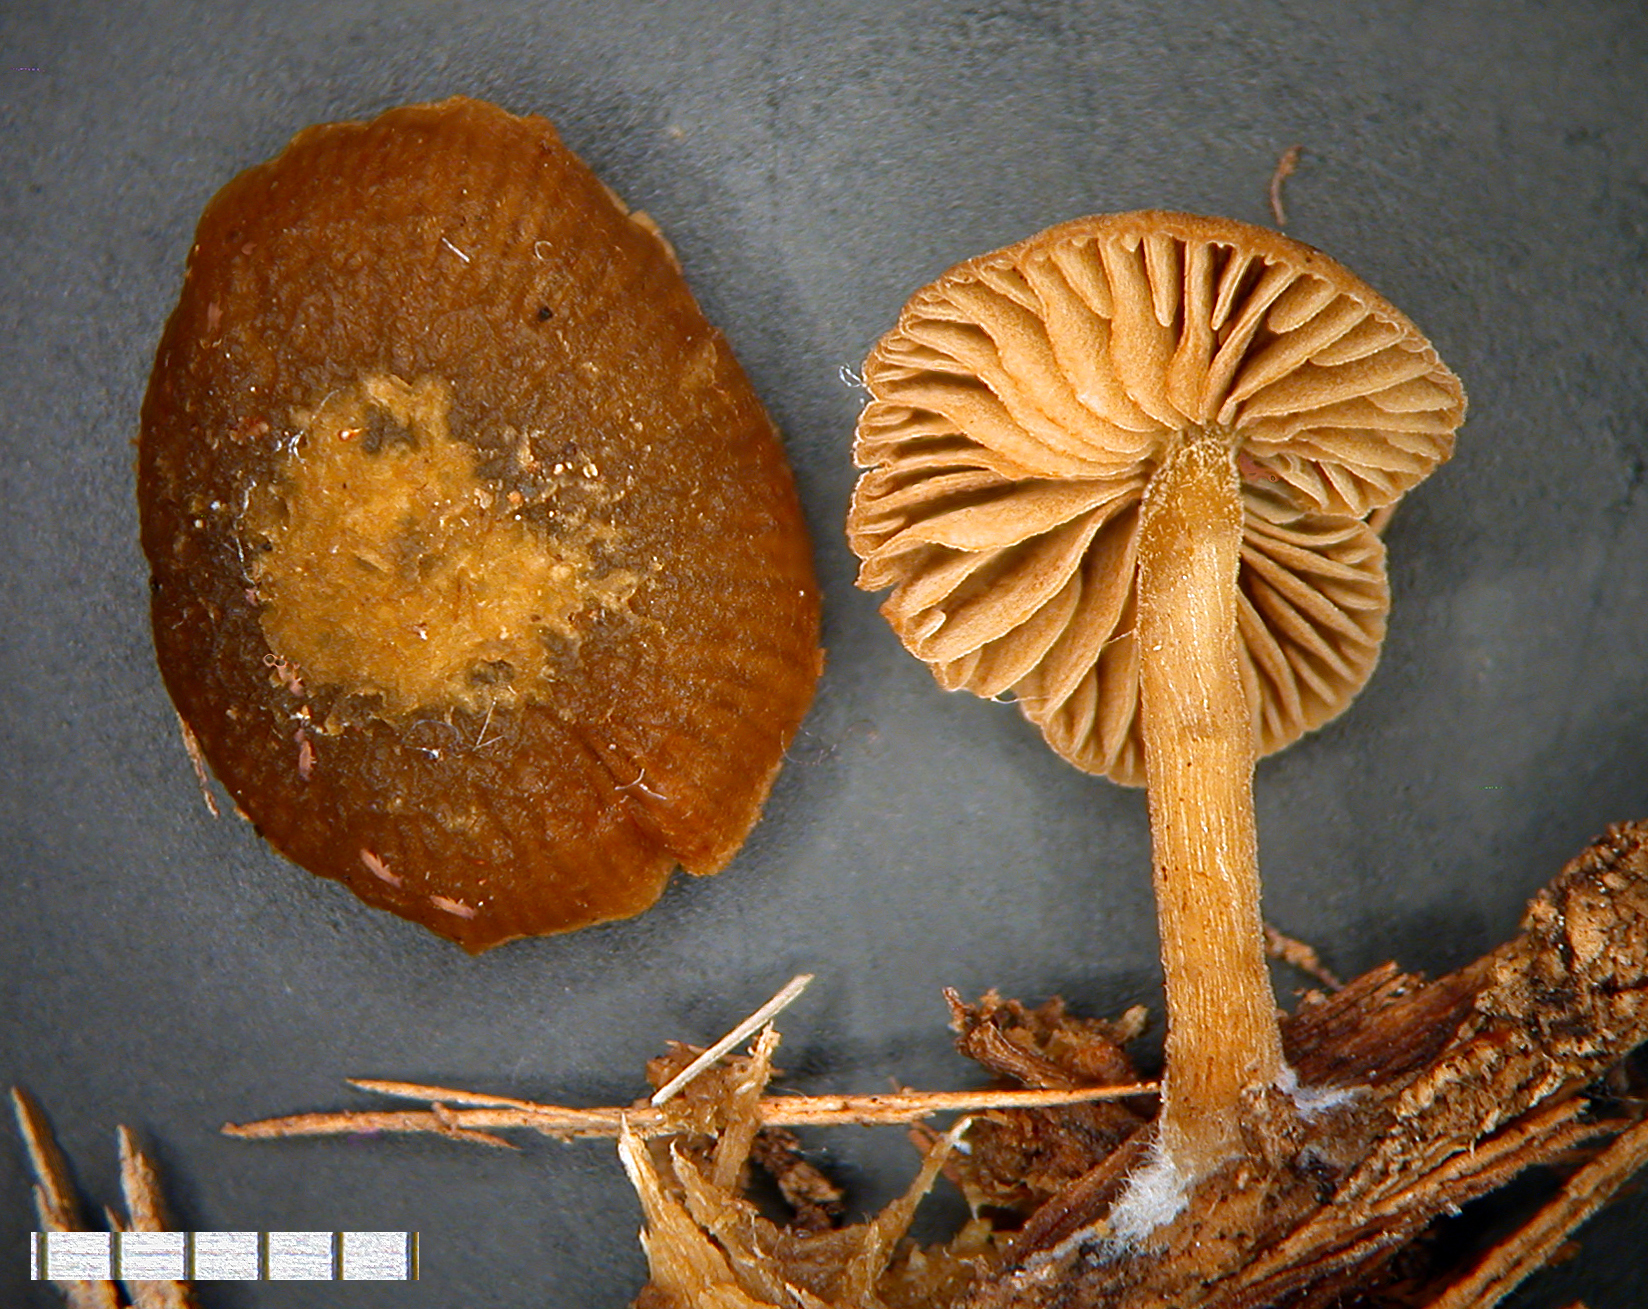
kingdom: Fungi
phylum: Basidiomycota
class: Agaricomycetes
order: Agaricales
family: Crepidotaceae
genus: Simocybe
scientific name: Simocybe phlebophora
